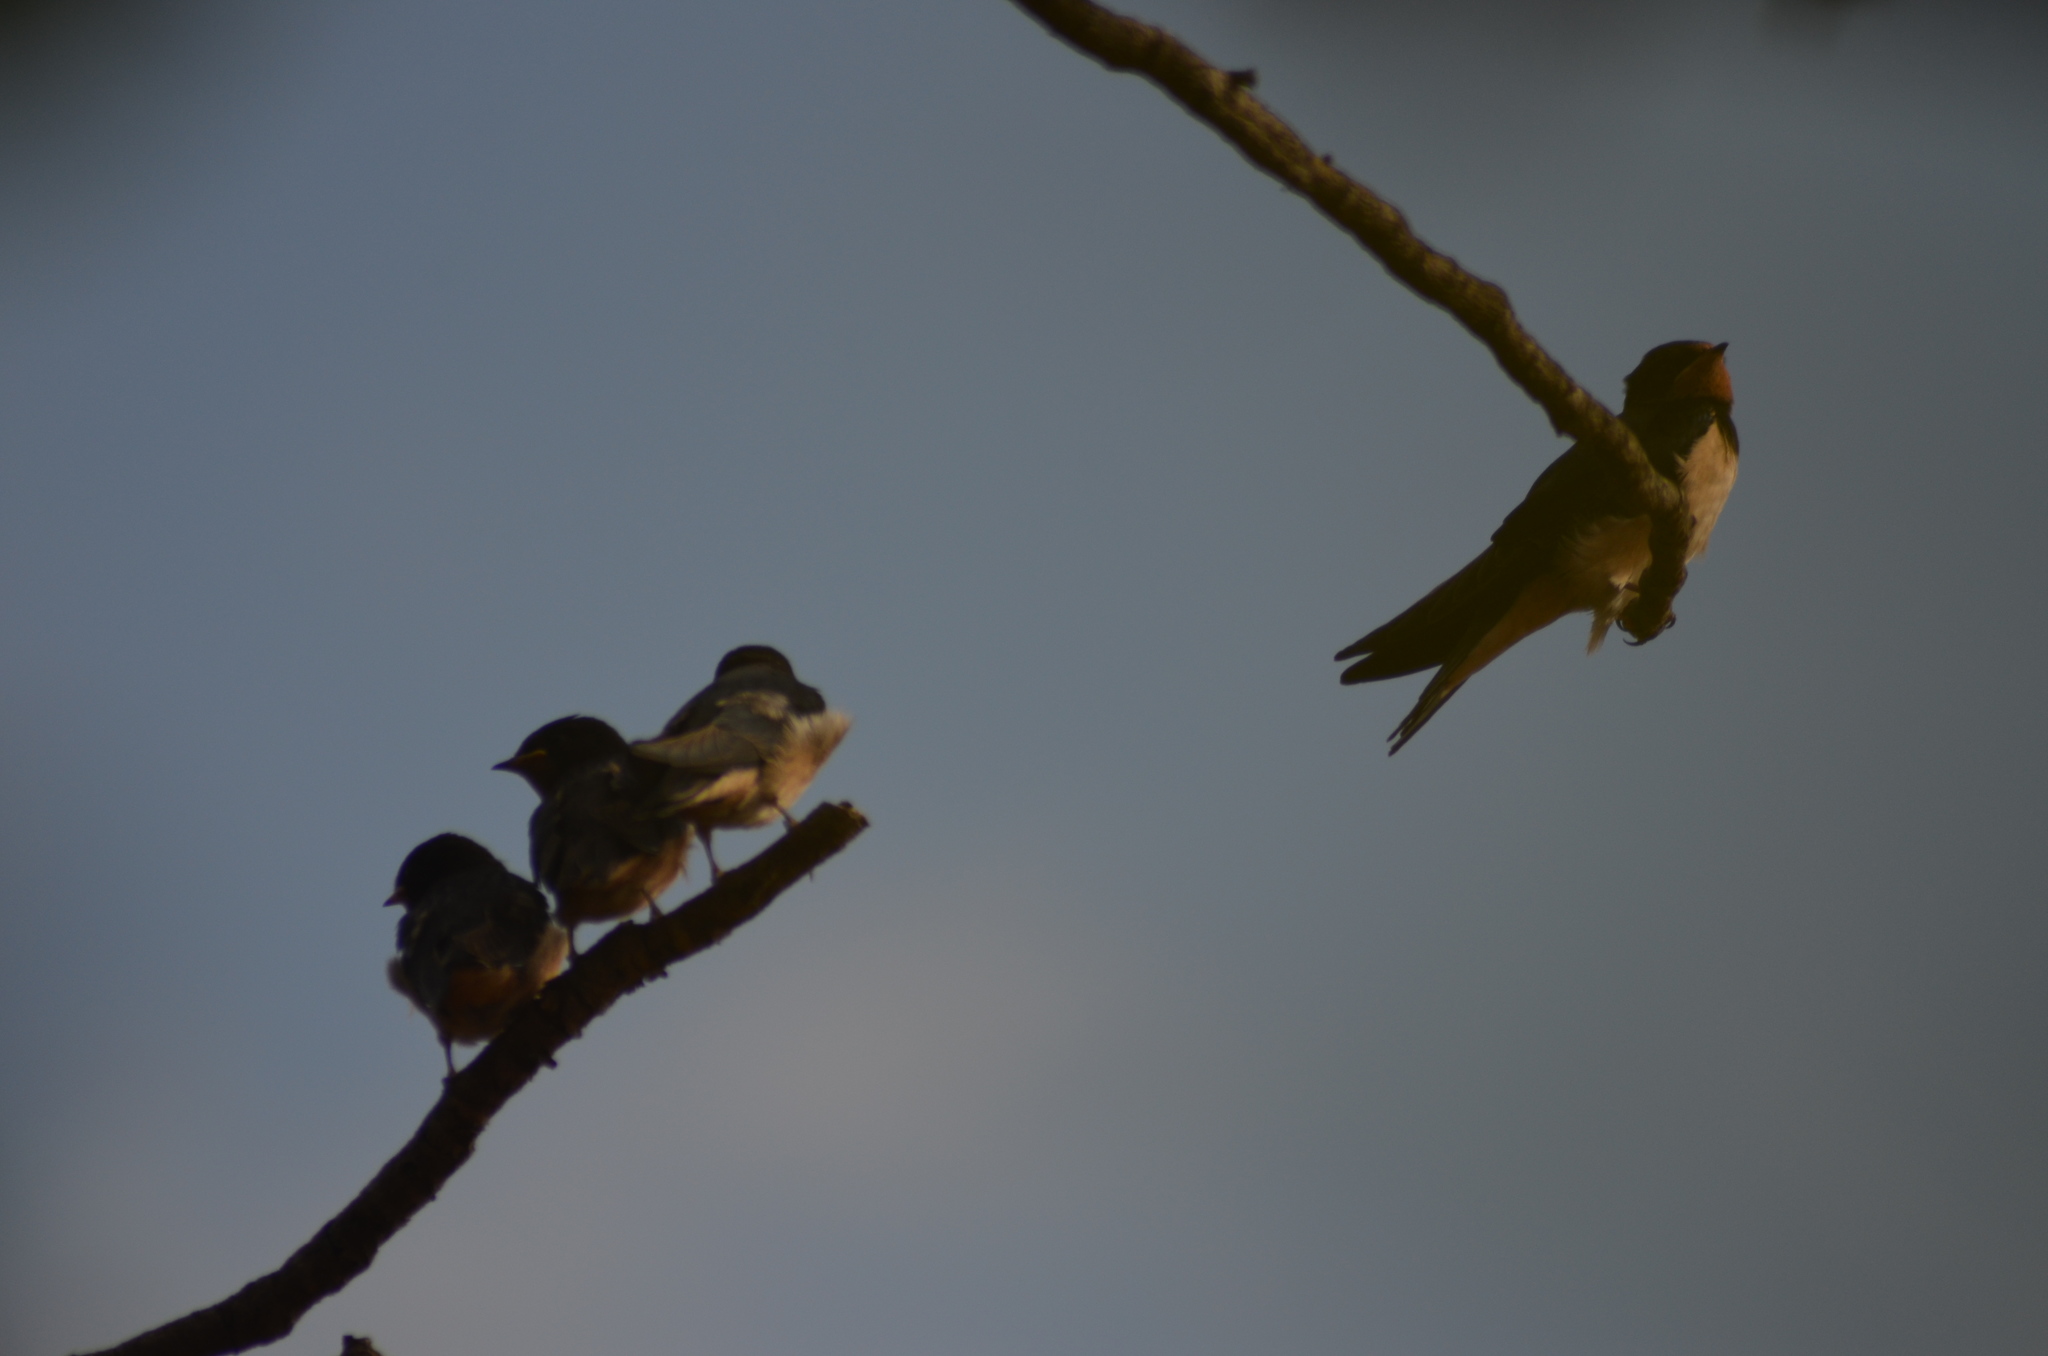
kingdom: Animalia
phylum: Chordata
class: Aves
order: Passeriformes
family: Hirundinidae
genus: Hirundo
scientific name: Hirundo rustica
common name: Barn swallow
